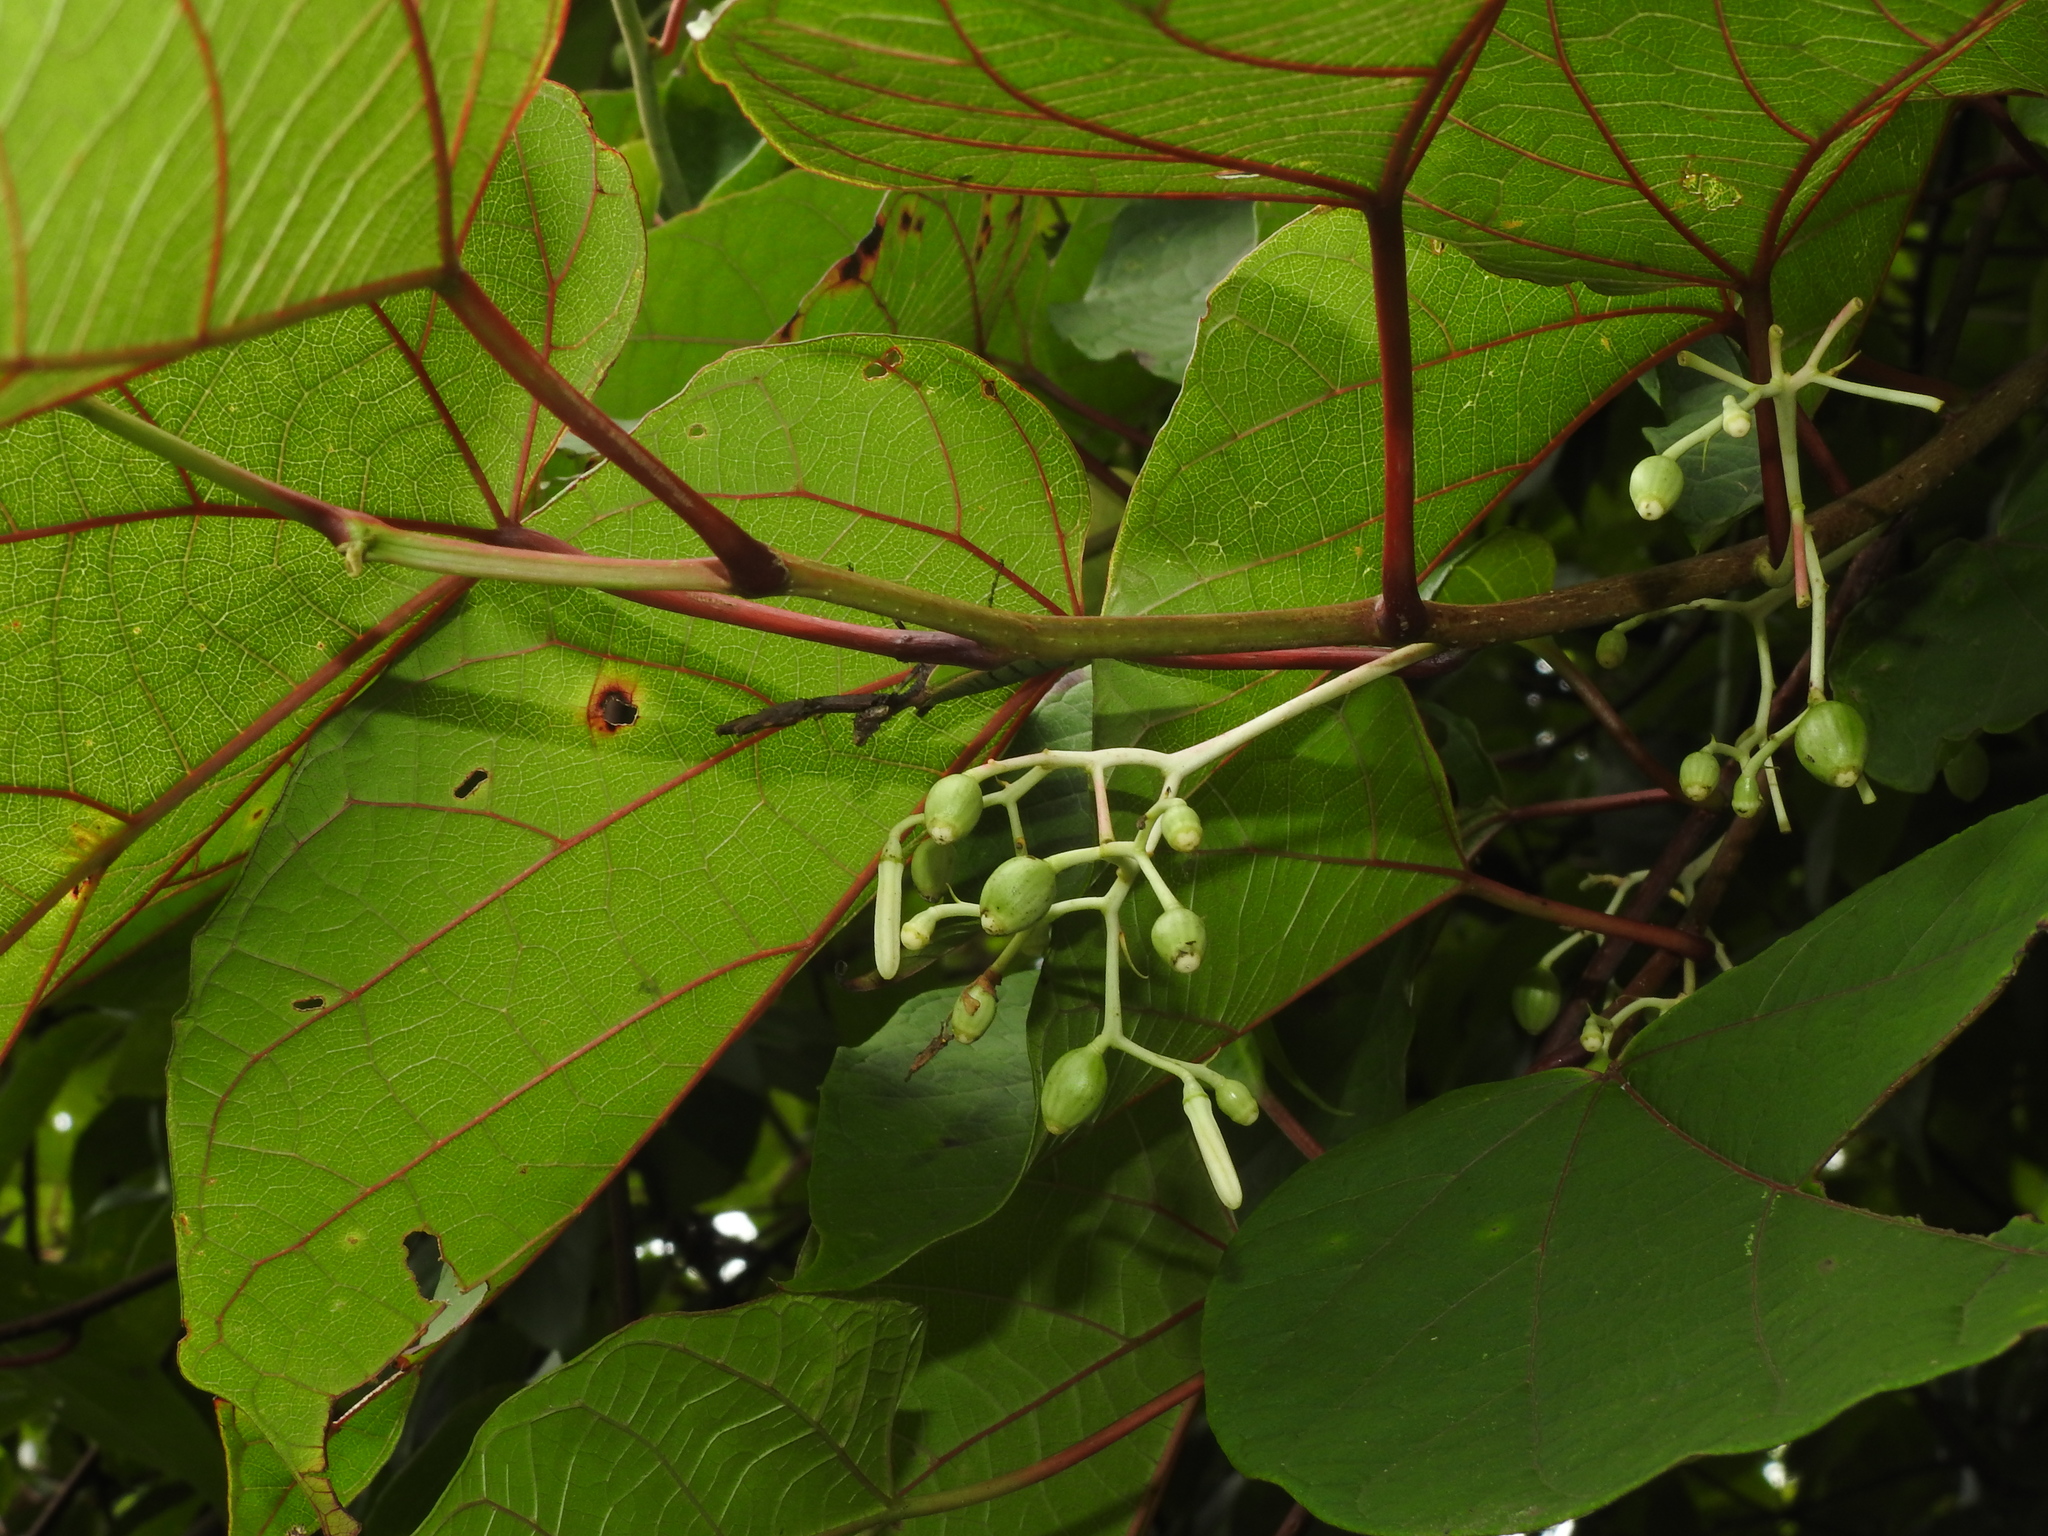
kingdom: Plantae
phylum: Tracheophyta
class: Magnoliopsida
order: Cornales
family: Cornaceae
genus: Alangium
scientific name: Alangium chinense
